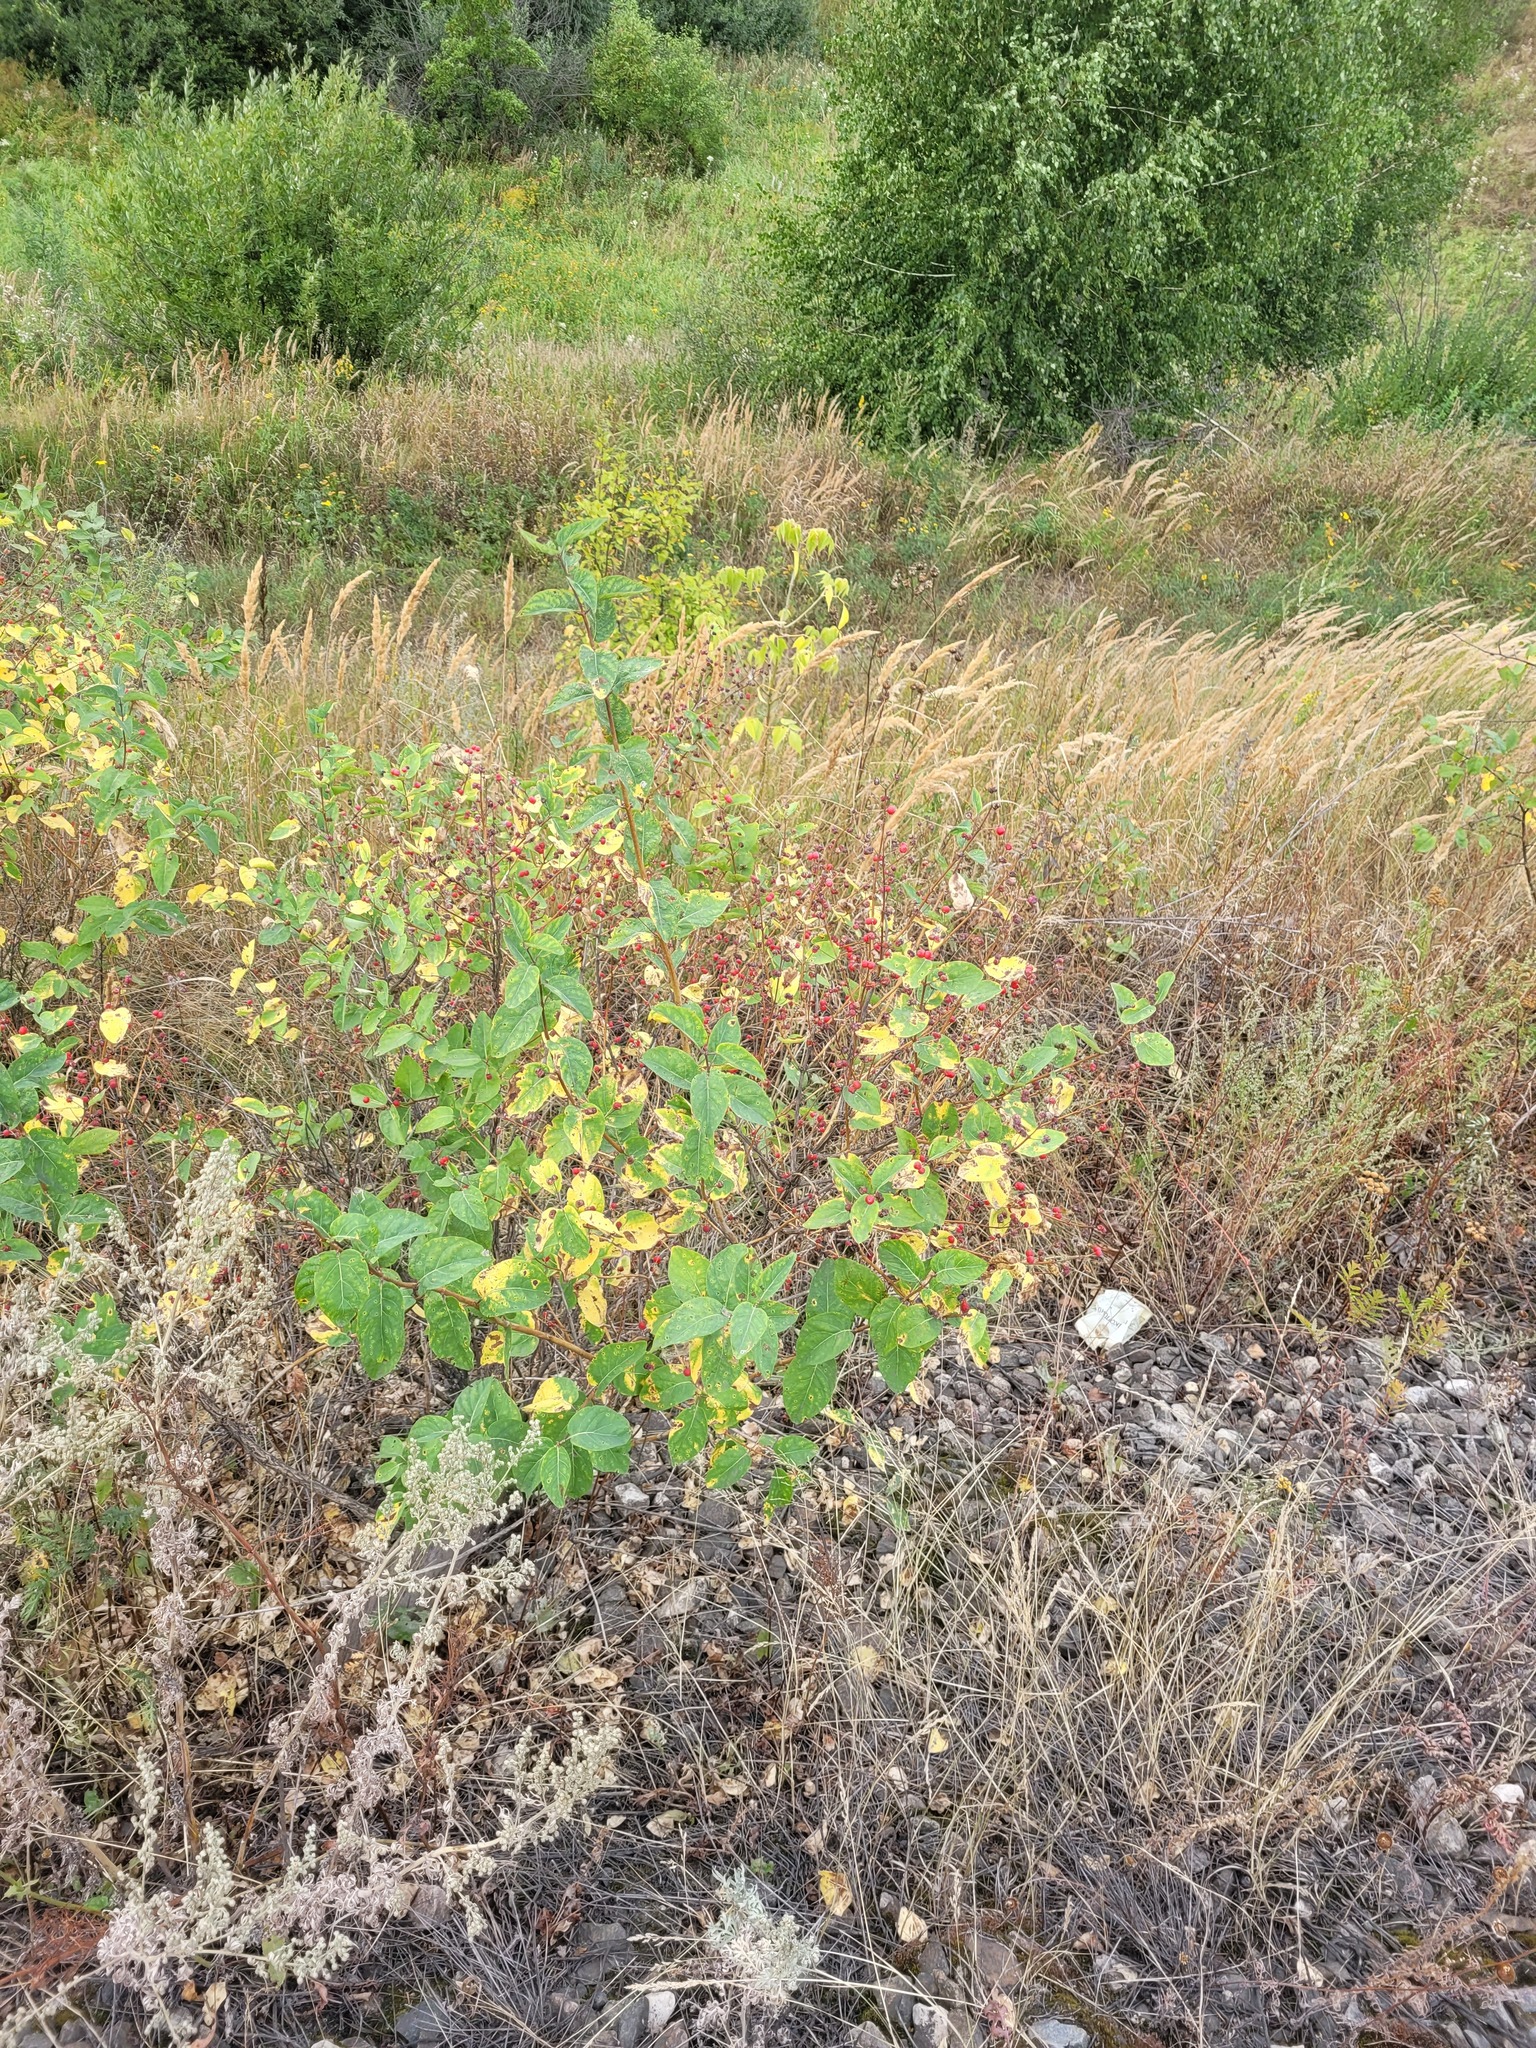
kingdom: Plantae
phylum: Tracheophyta
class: Magnoliopsida
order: Dipsacales
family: Caprifoliaceae
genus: Lonicera
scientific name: Lonicera tatarica
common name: Tatarian honeysuckle
